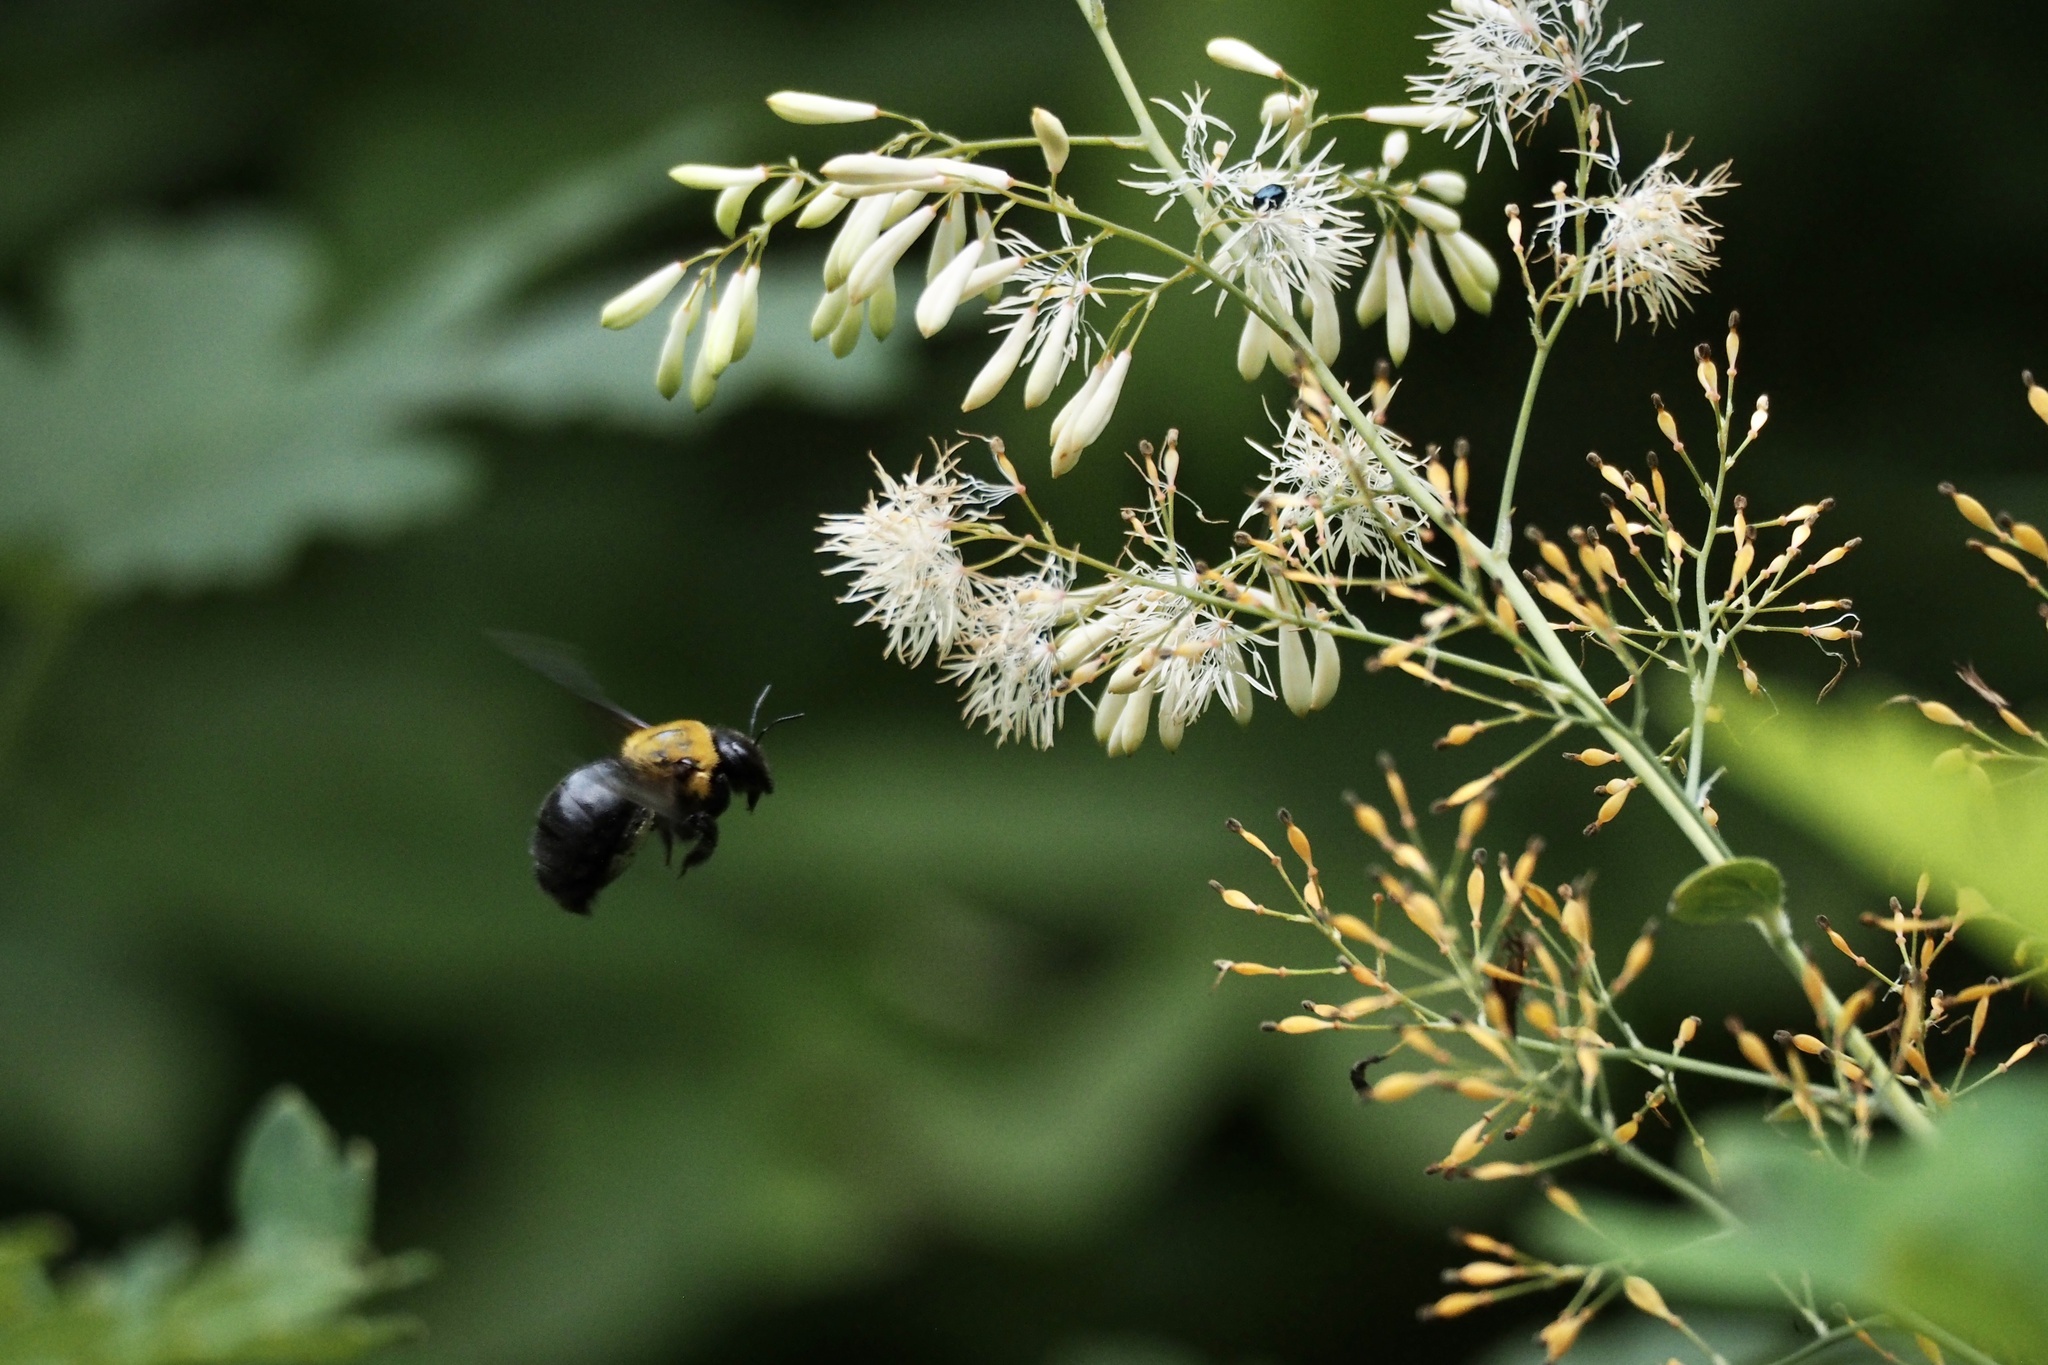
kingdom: Animalia
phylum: Arthropoda
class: Insecta
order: Hymenoptera
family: Apidae
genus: Xylocopa
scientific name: Xylocopa appendiculata
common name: Japanese carpenter bee
